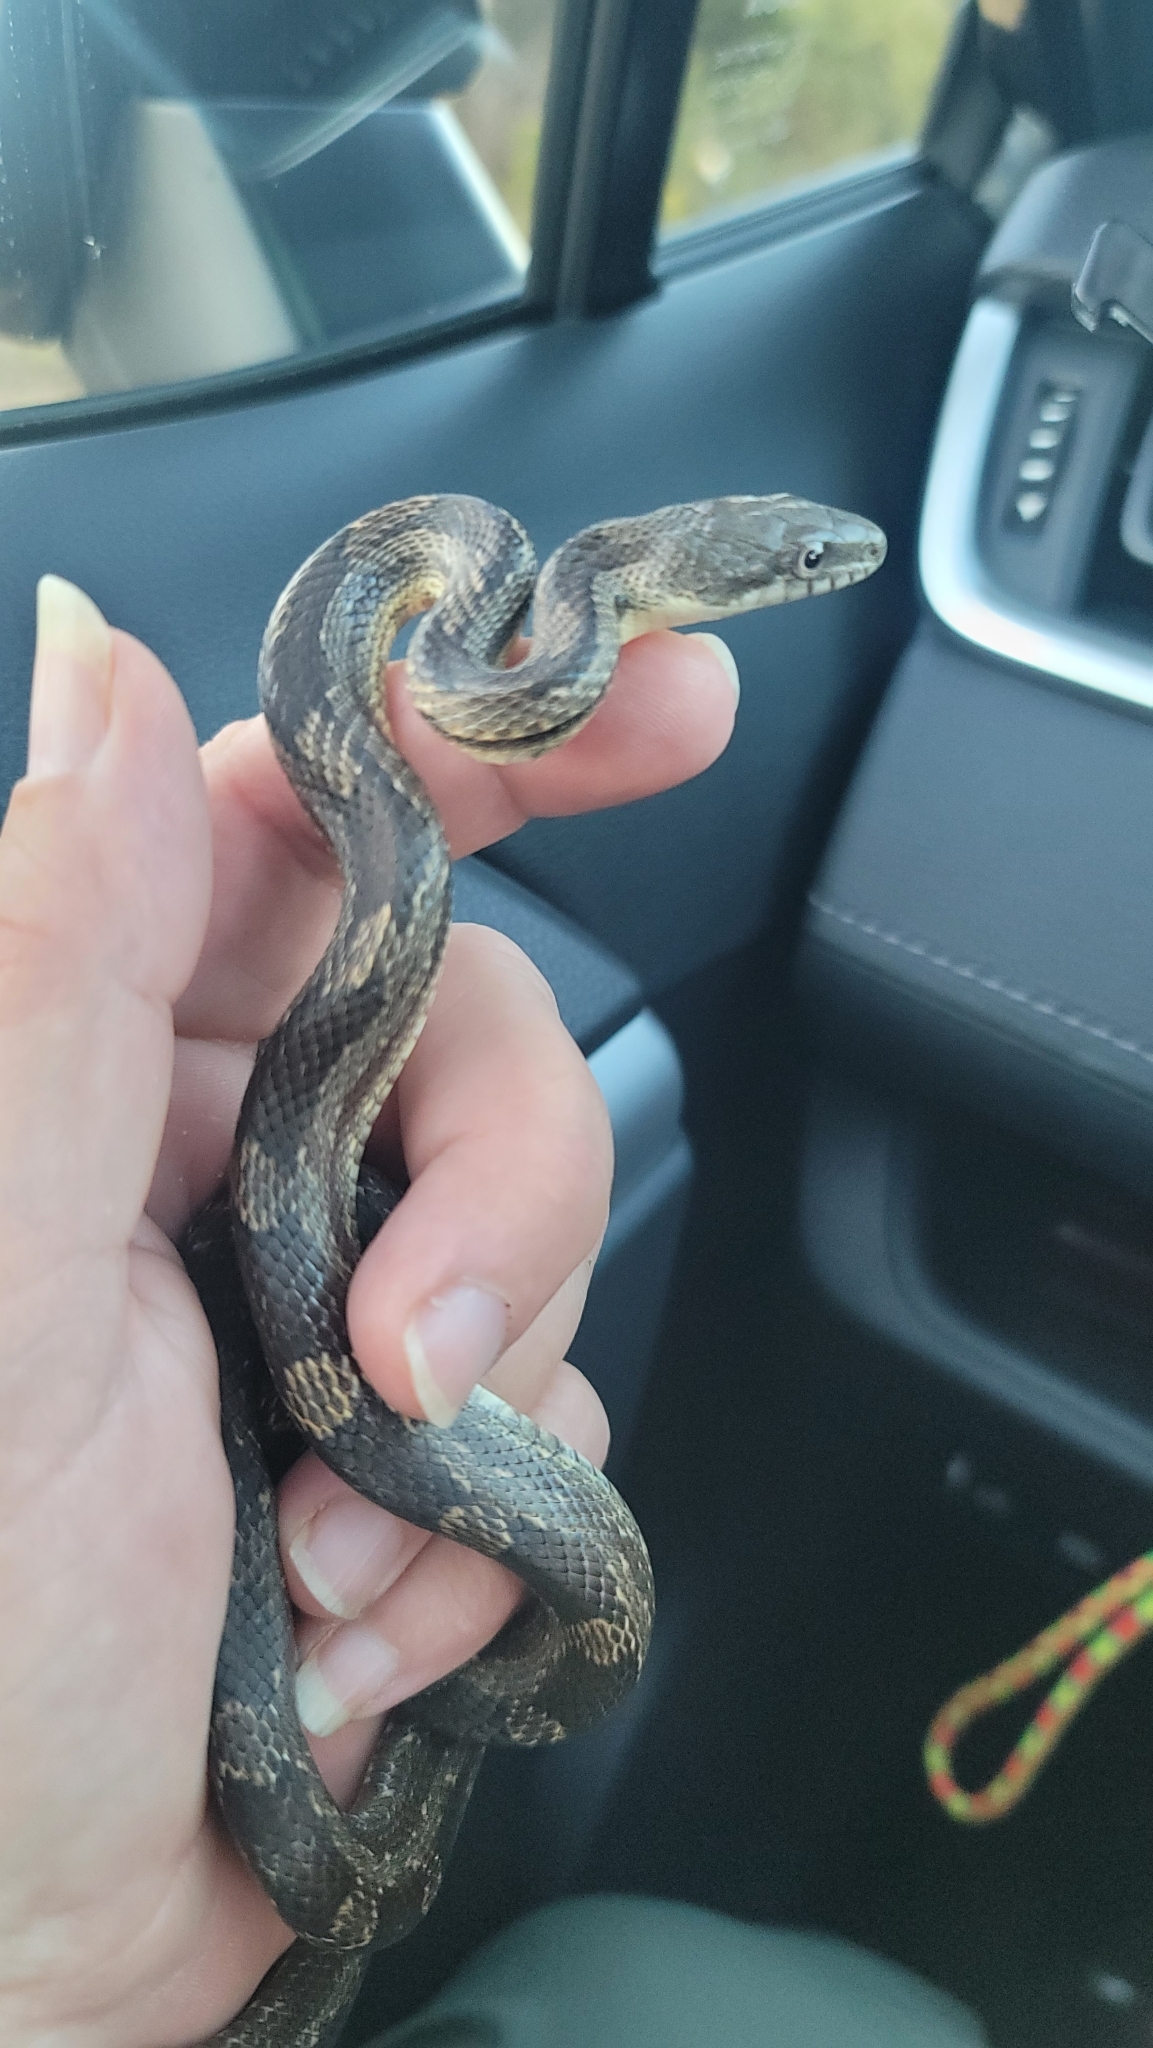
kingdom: Animalia
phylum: Chordata
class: Squamata
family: Colubridae
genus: Pantherophis
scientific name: Pantherophis
